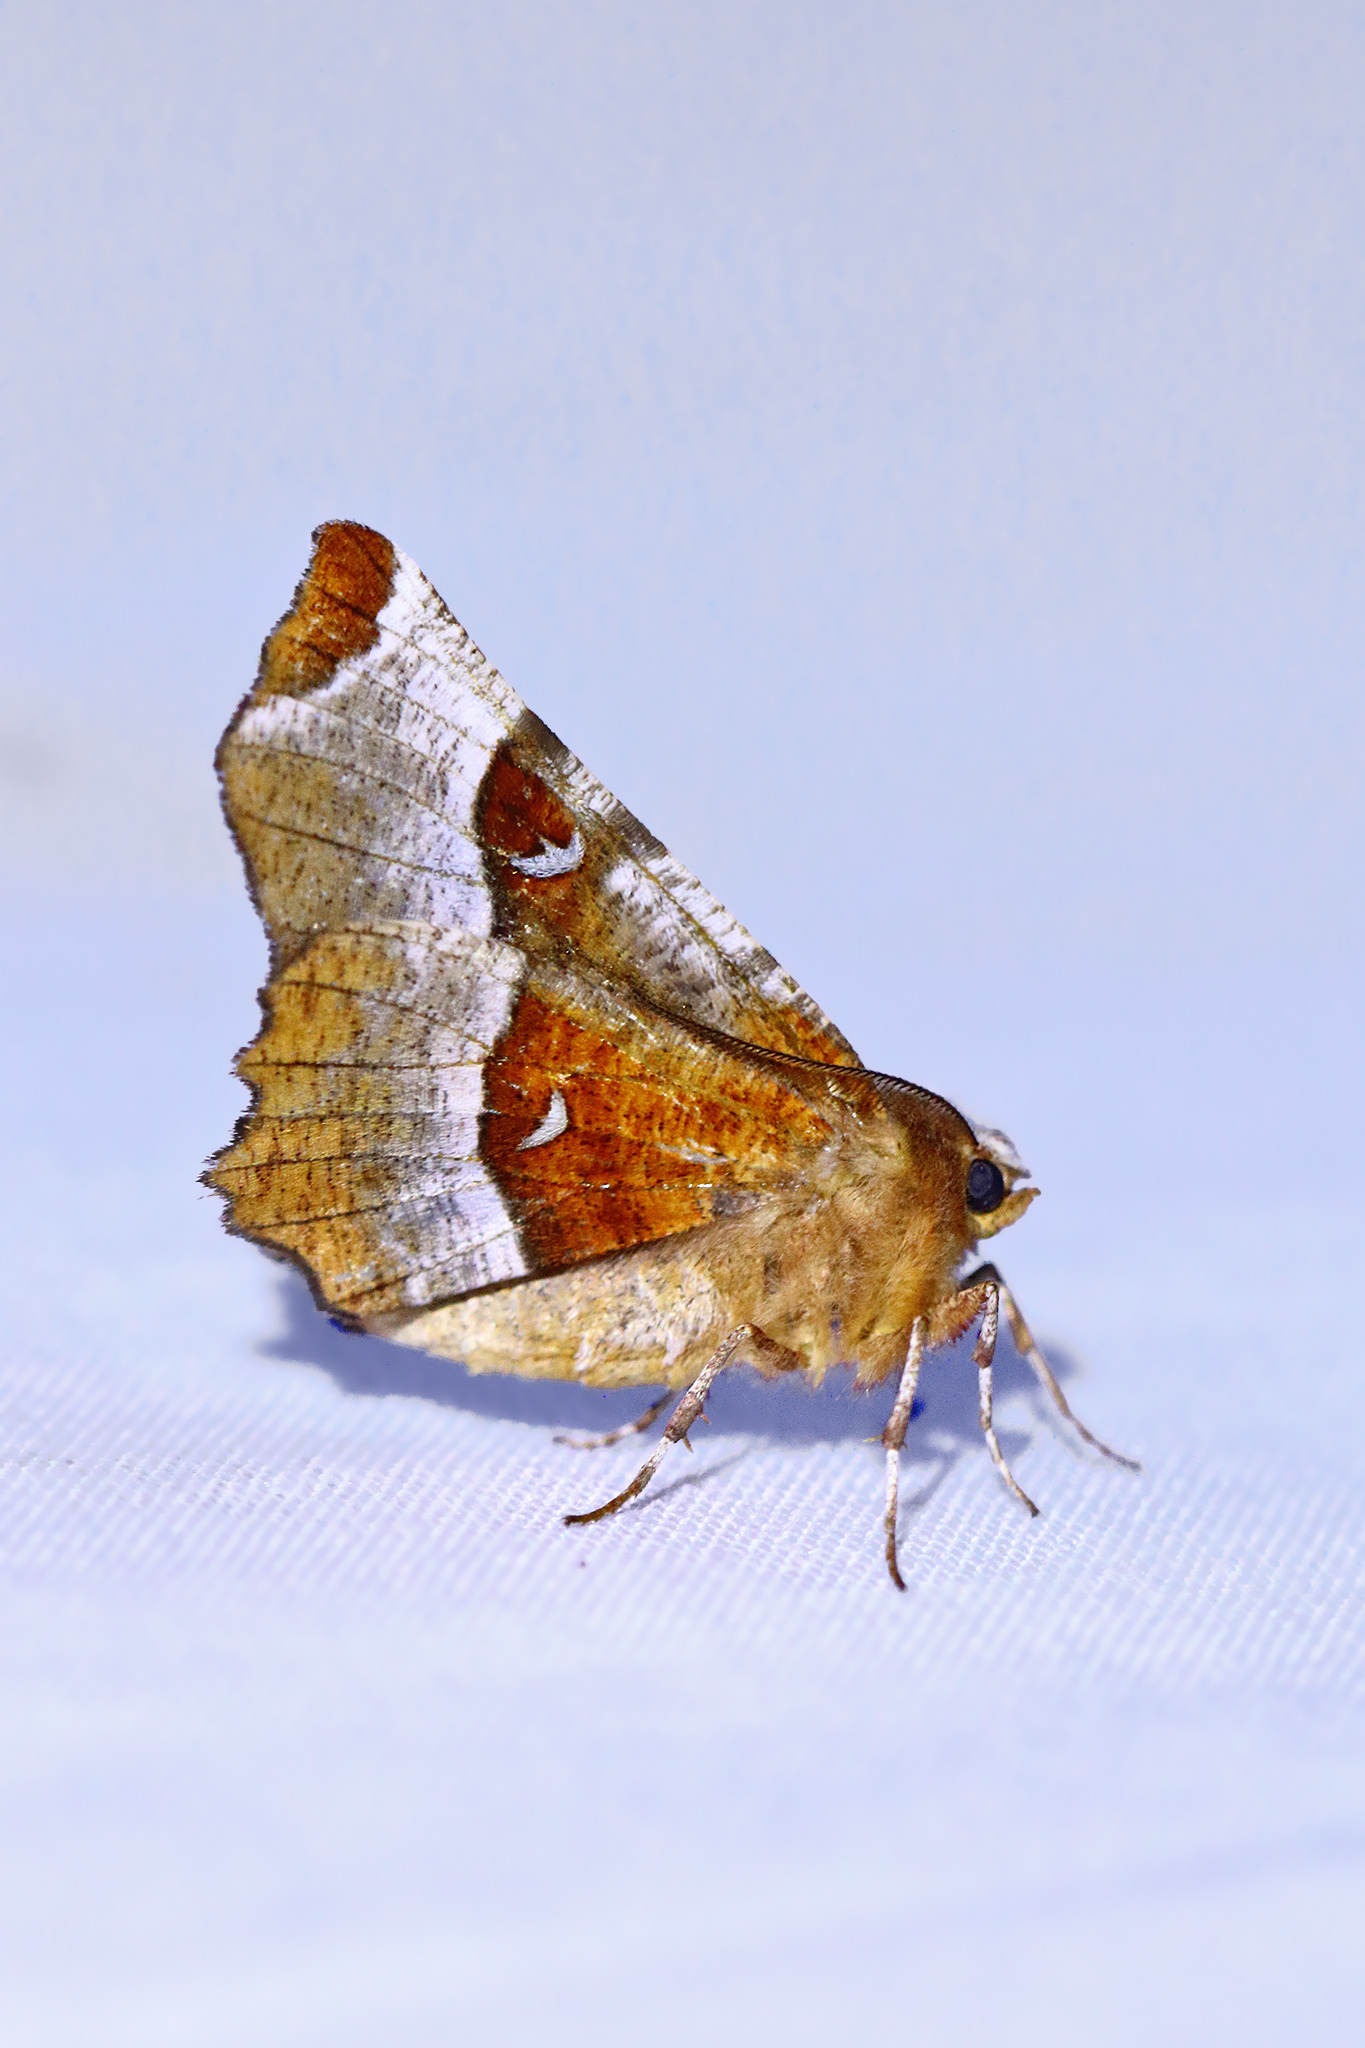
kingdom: Animalia
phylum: Arthropoda
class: Insecta
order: Lepidoptera
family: Geometridae
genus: Selenia
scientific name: Selenia tetralunaria
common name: Purple thorn
